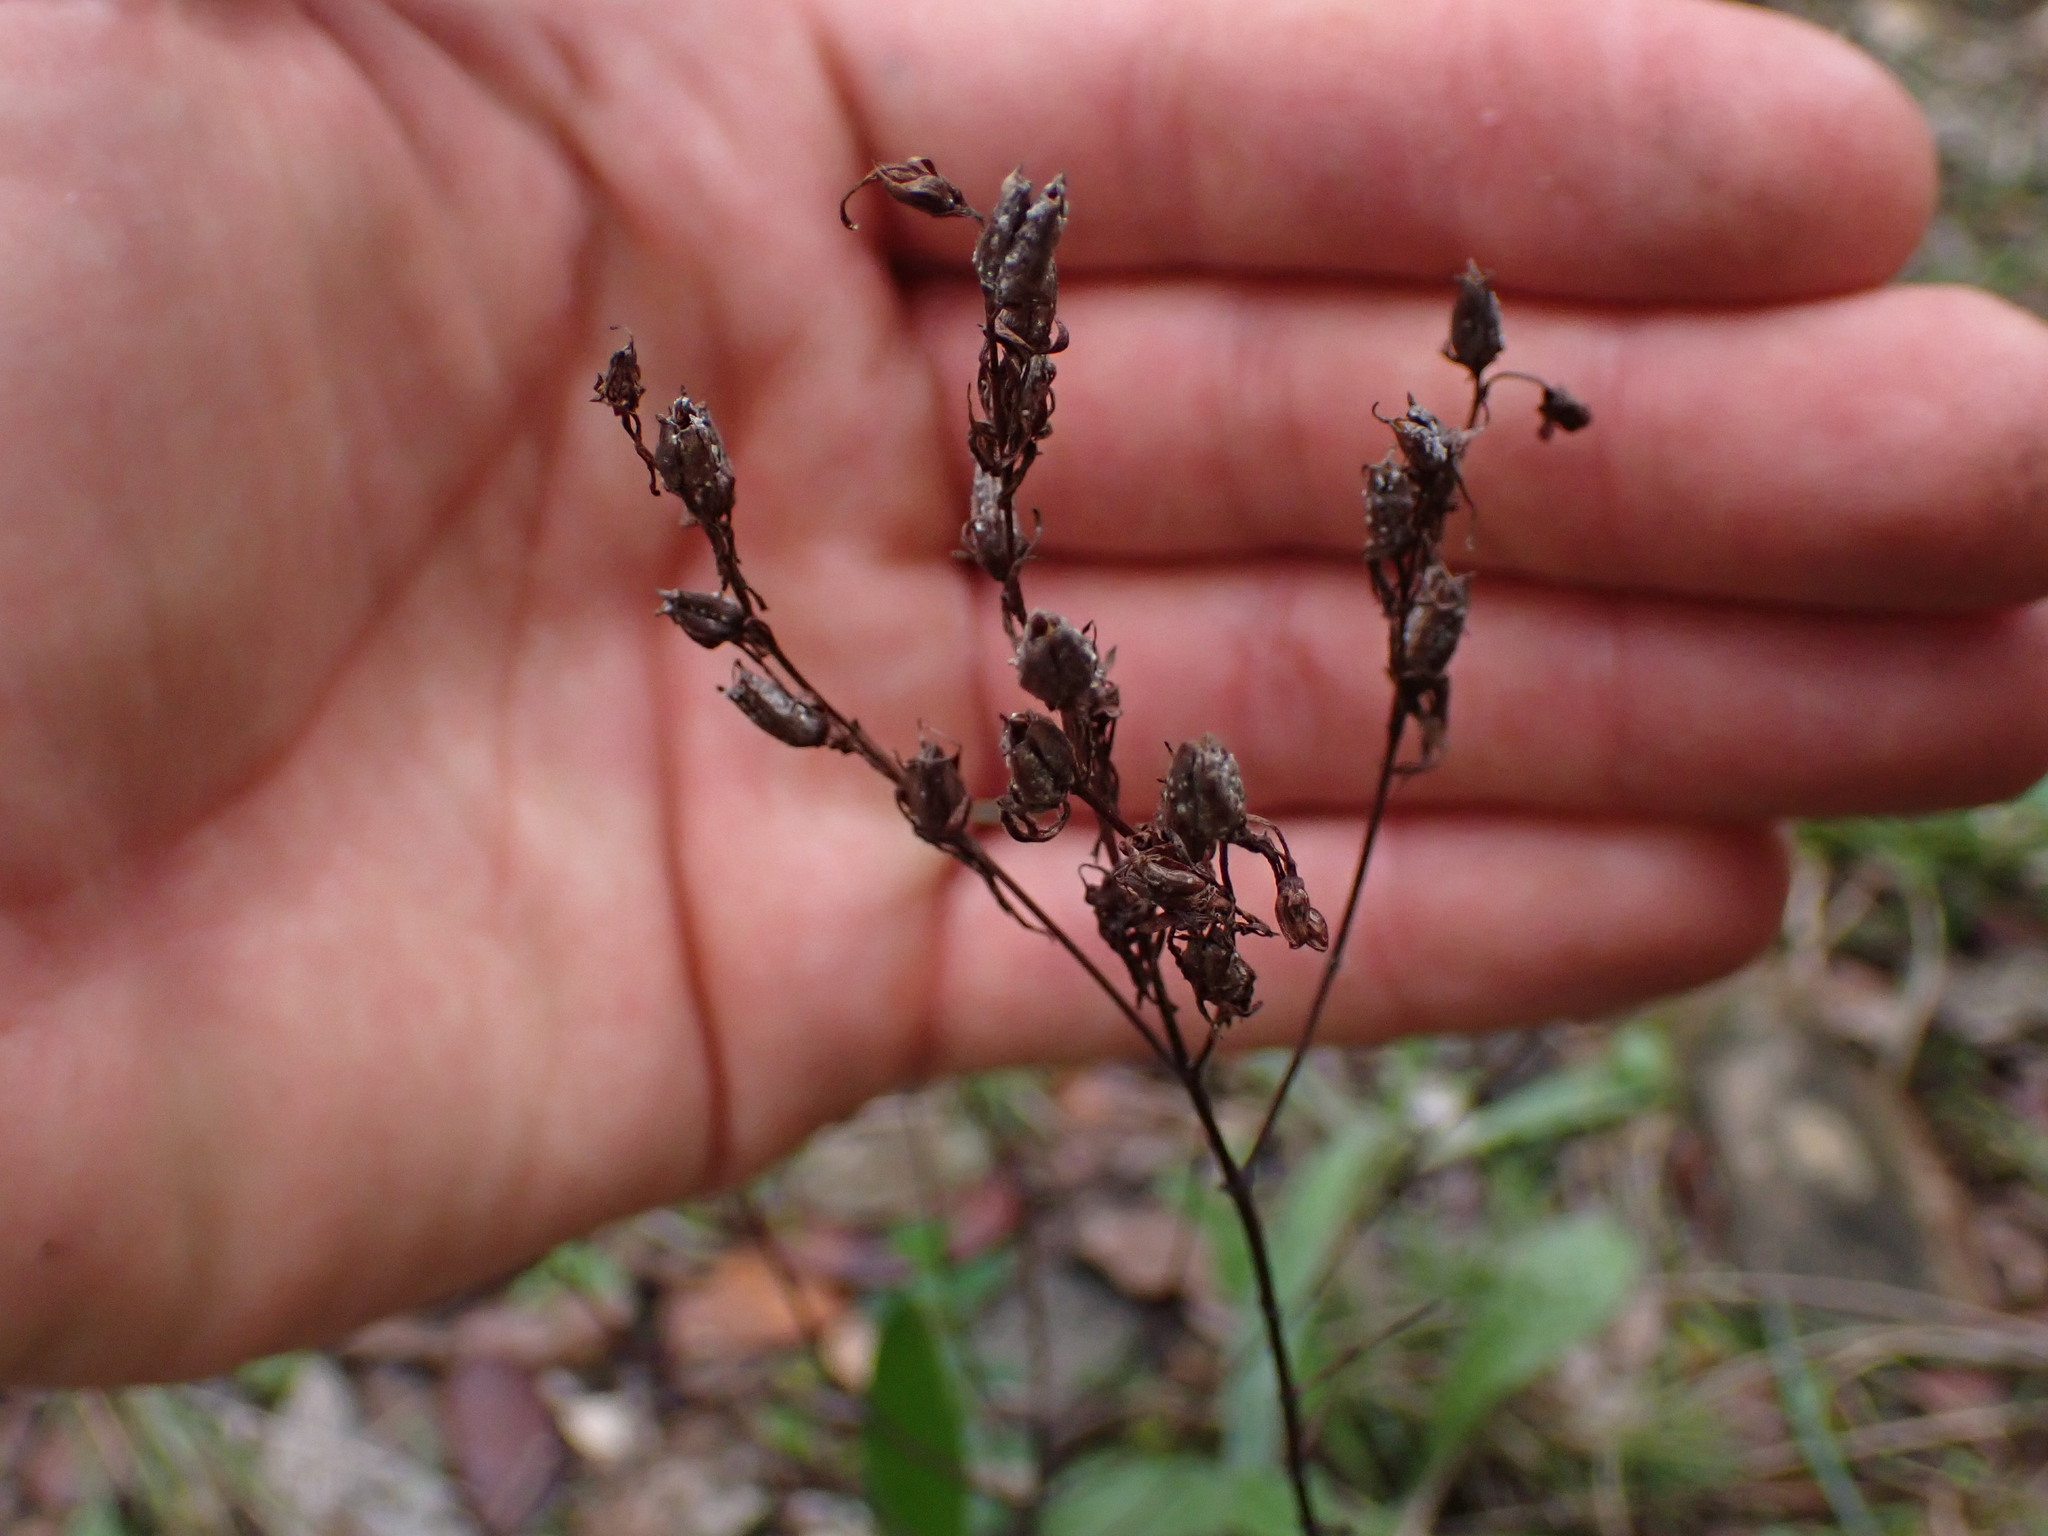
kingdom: Plantae
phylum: Tracheophyta
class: Magnoliopsida
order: Malpighiales
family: Hypericaceae
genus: Hypericum
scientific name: Hypericum perforatum
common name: Common st. johnswort
